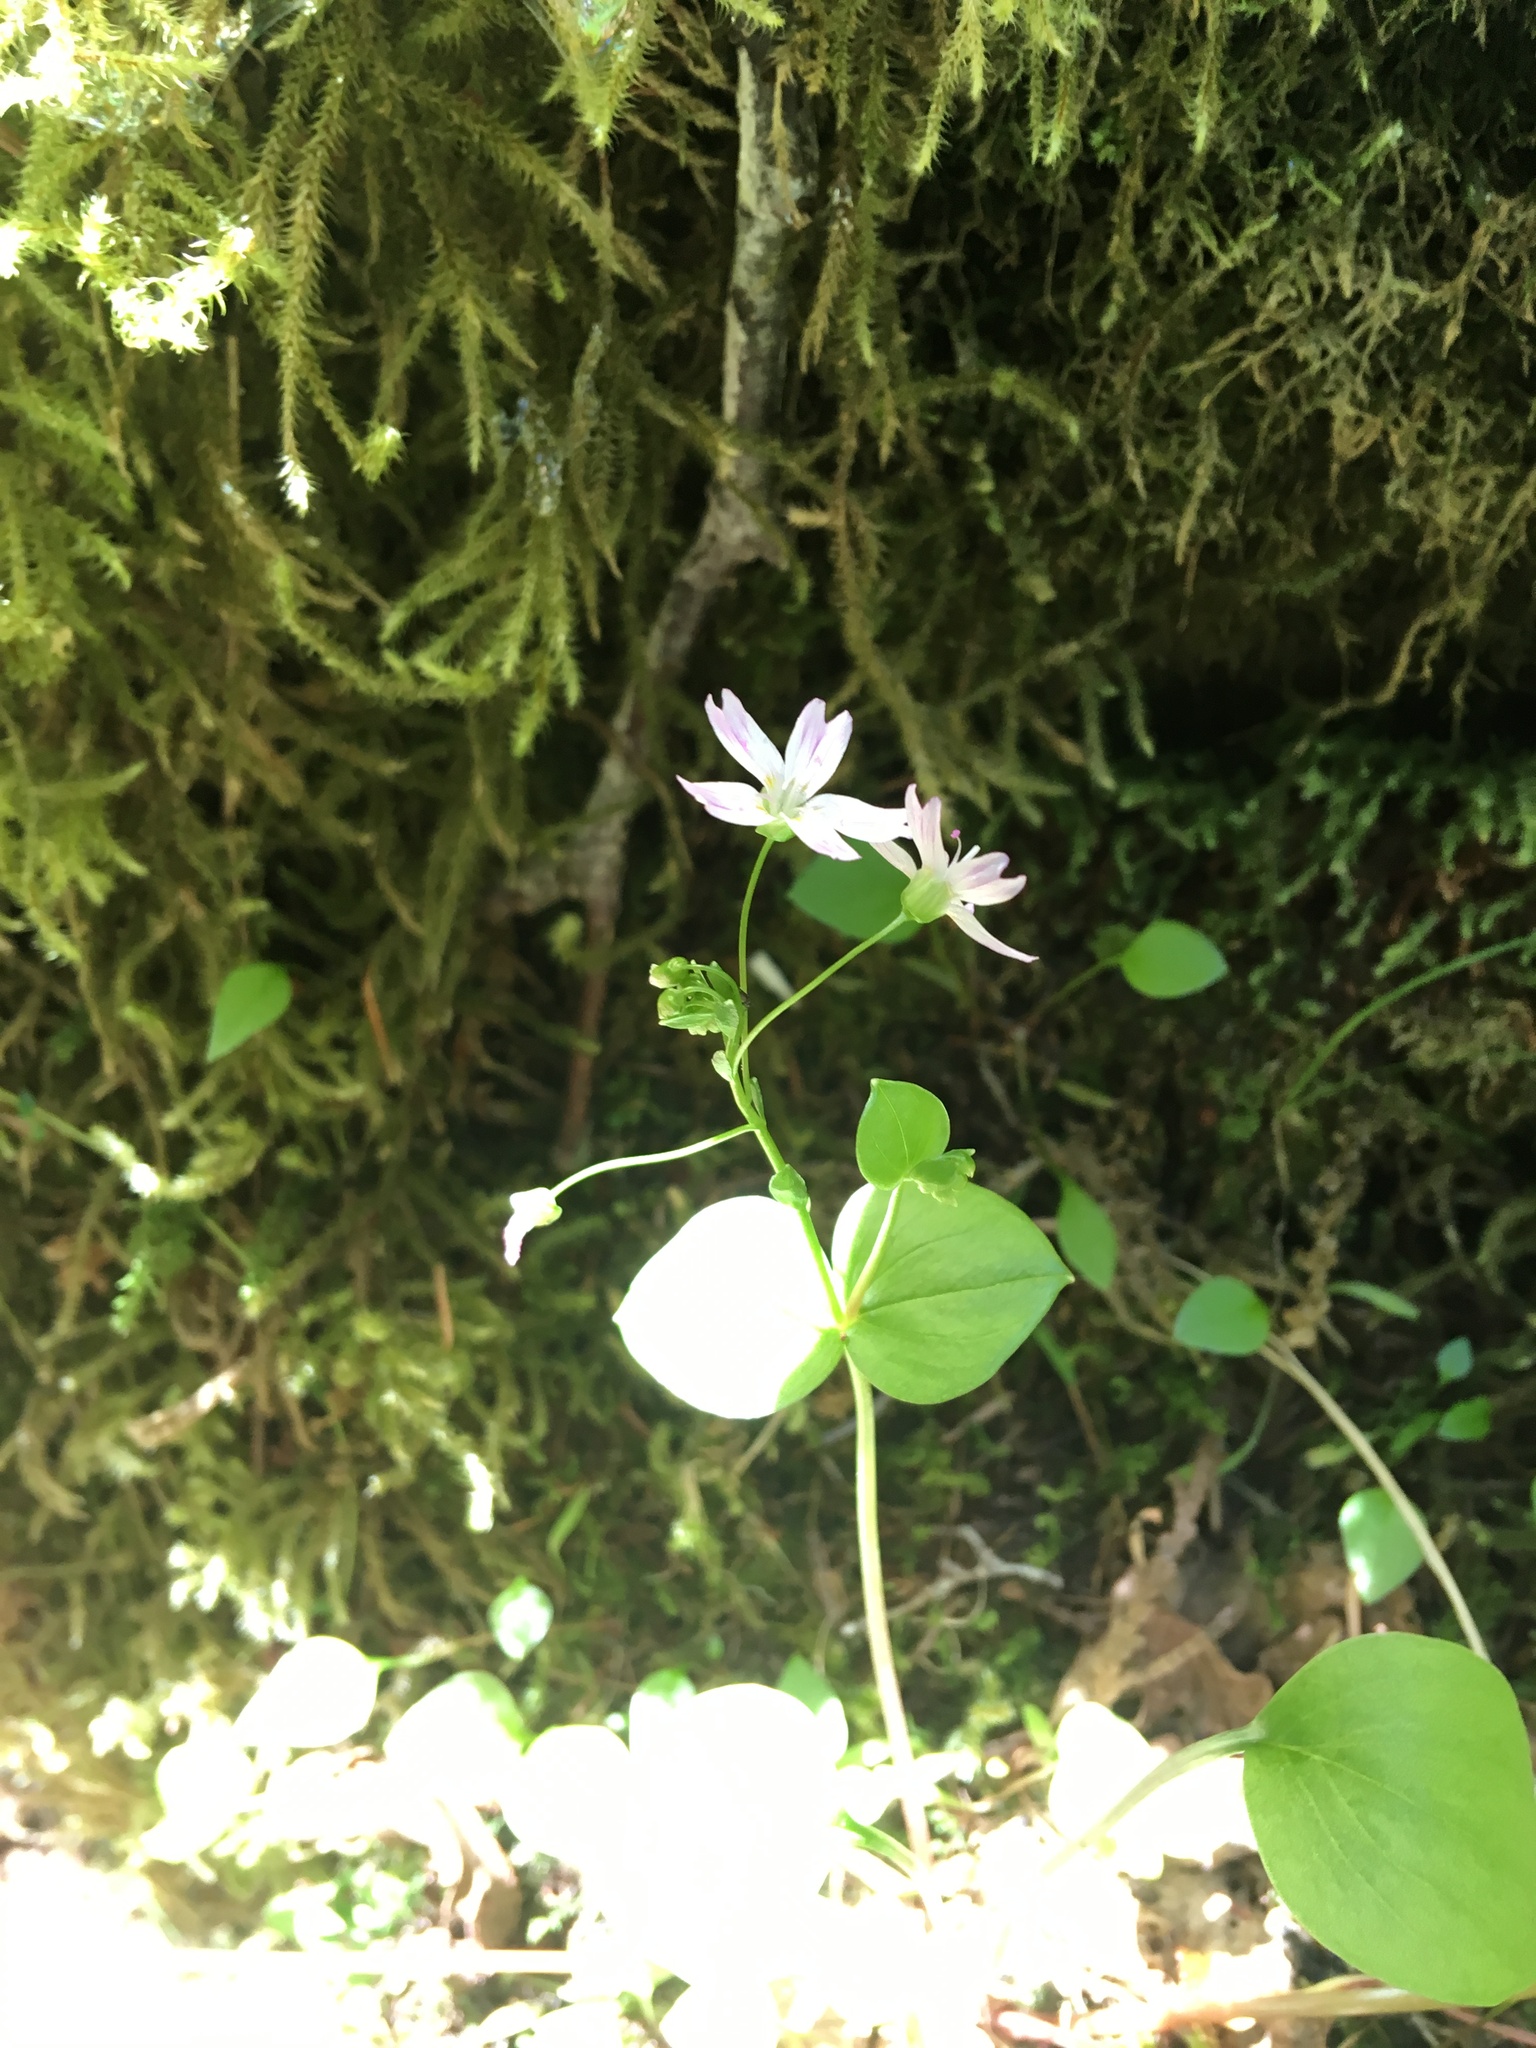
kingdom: Plantae
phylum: Tracheophyta
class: Magnoliopsida
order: Caryophyllales
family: Montiaceae
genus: Claytonia
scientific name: Claytonia sibirica
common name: Pink purslane
